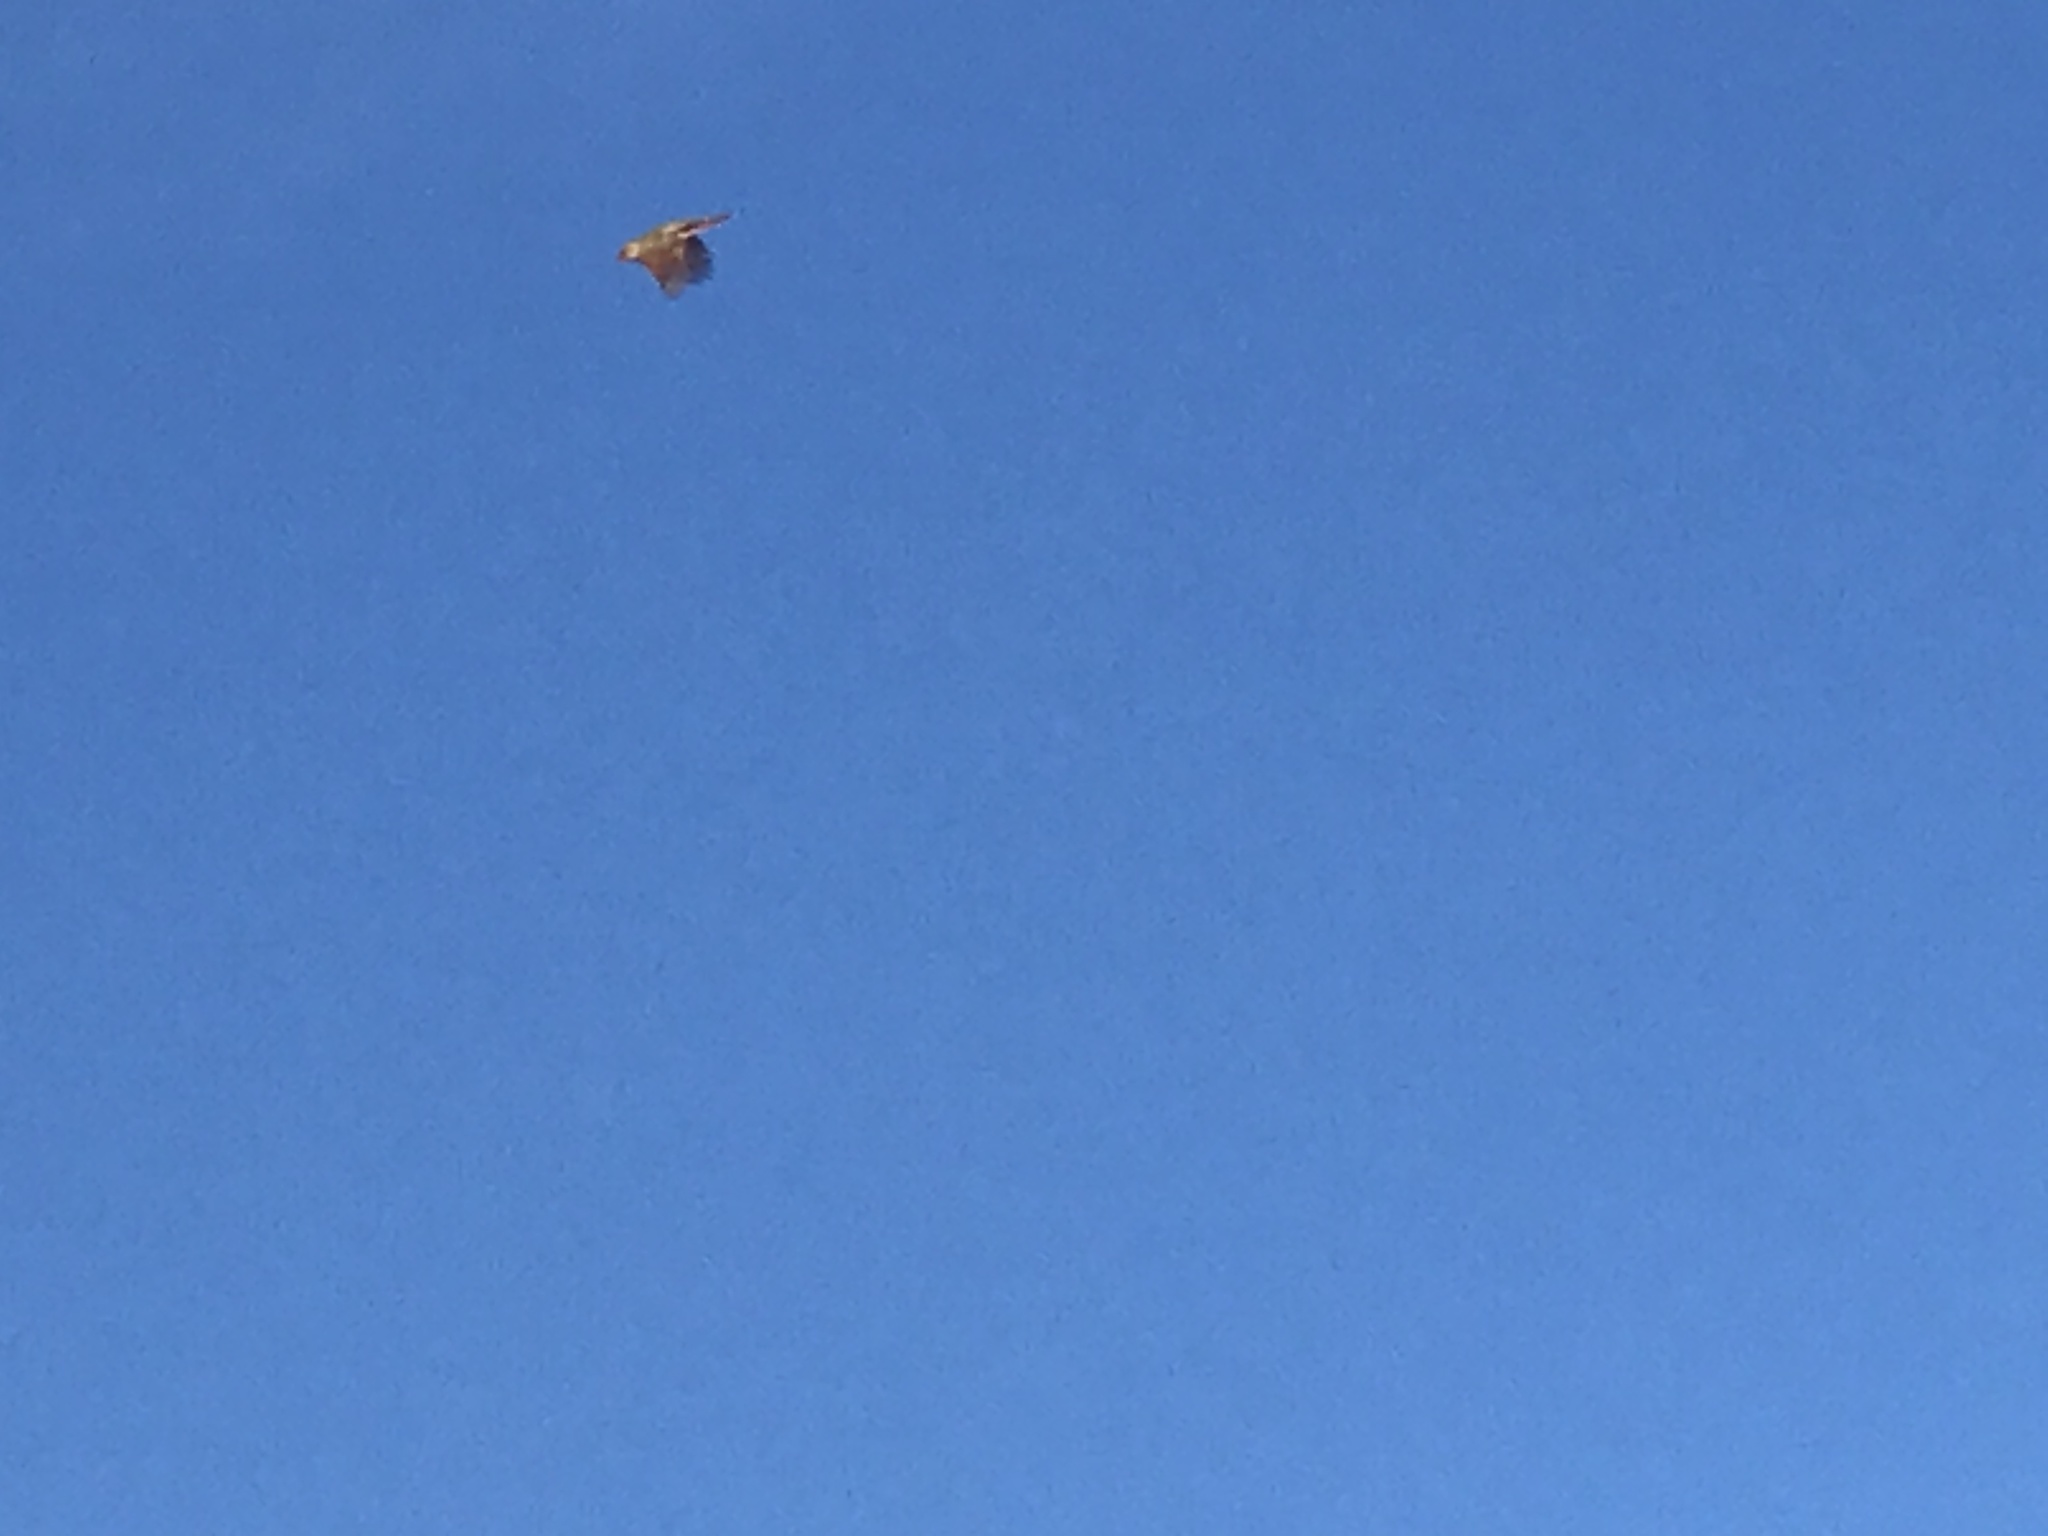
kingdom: Animalia
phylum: Chordata
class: Aves
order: Passeriformes
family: Cardinalidae
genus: Cardinalis
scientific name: Cardinalis cardinalis
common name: Northern cardinal
